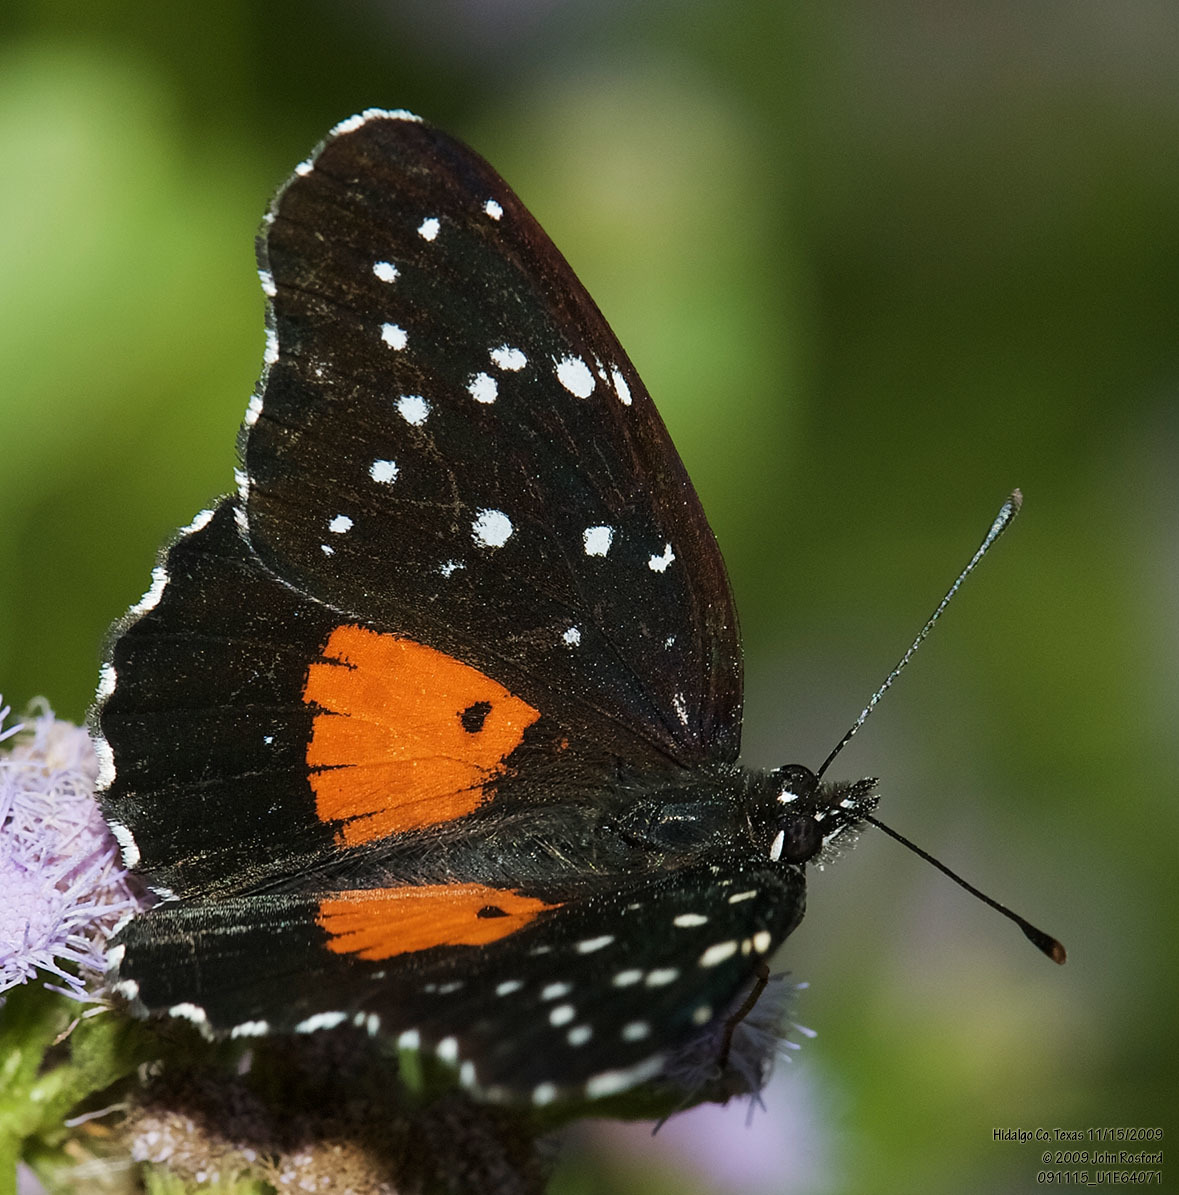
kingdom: Animalia
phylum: Arthropoda
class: Insecta
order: Lepidoptera
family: Nymphalidae
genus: Chlosyne
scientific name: Chlosyne janais
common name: Crimson patch
